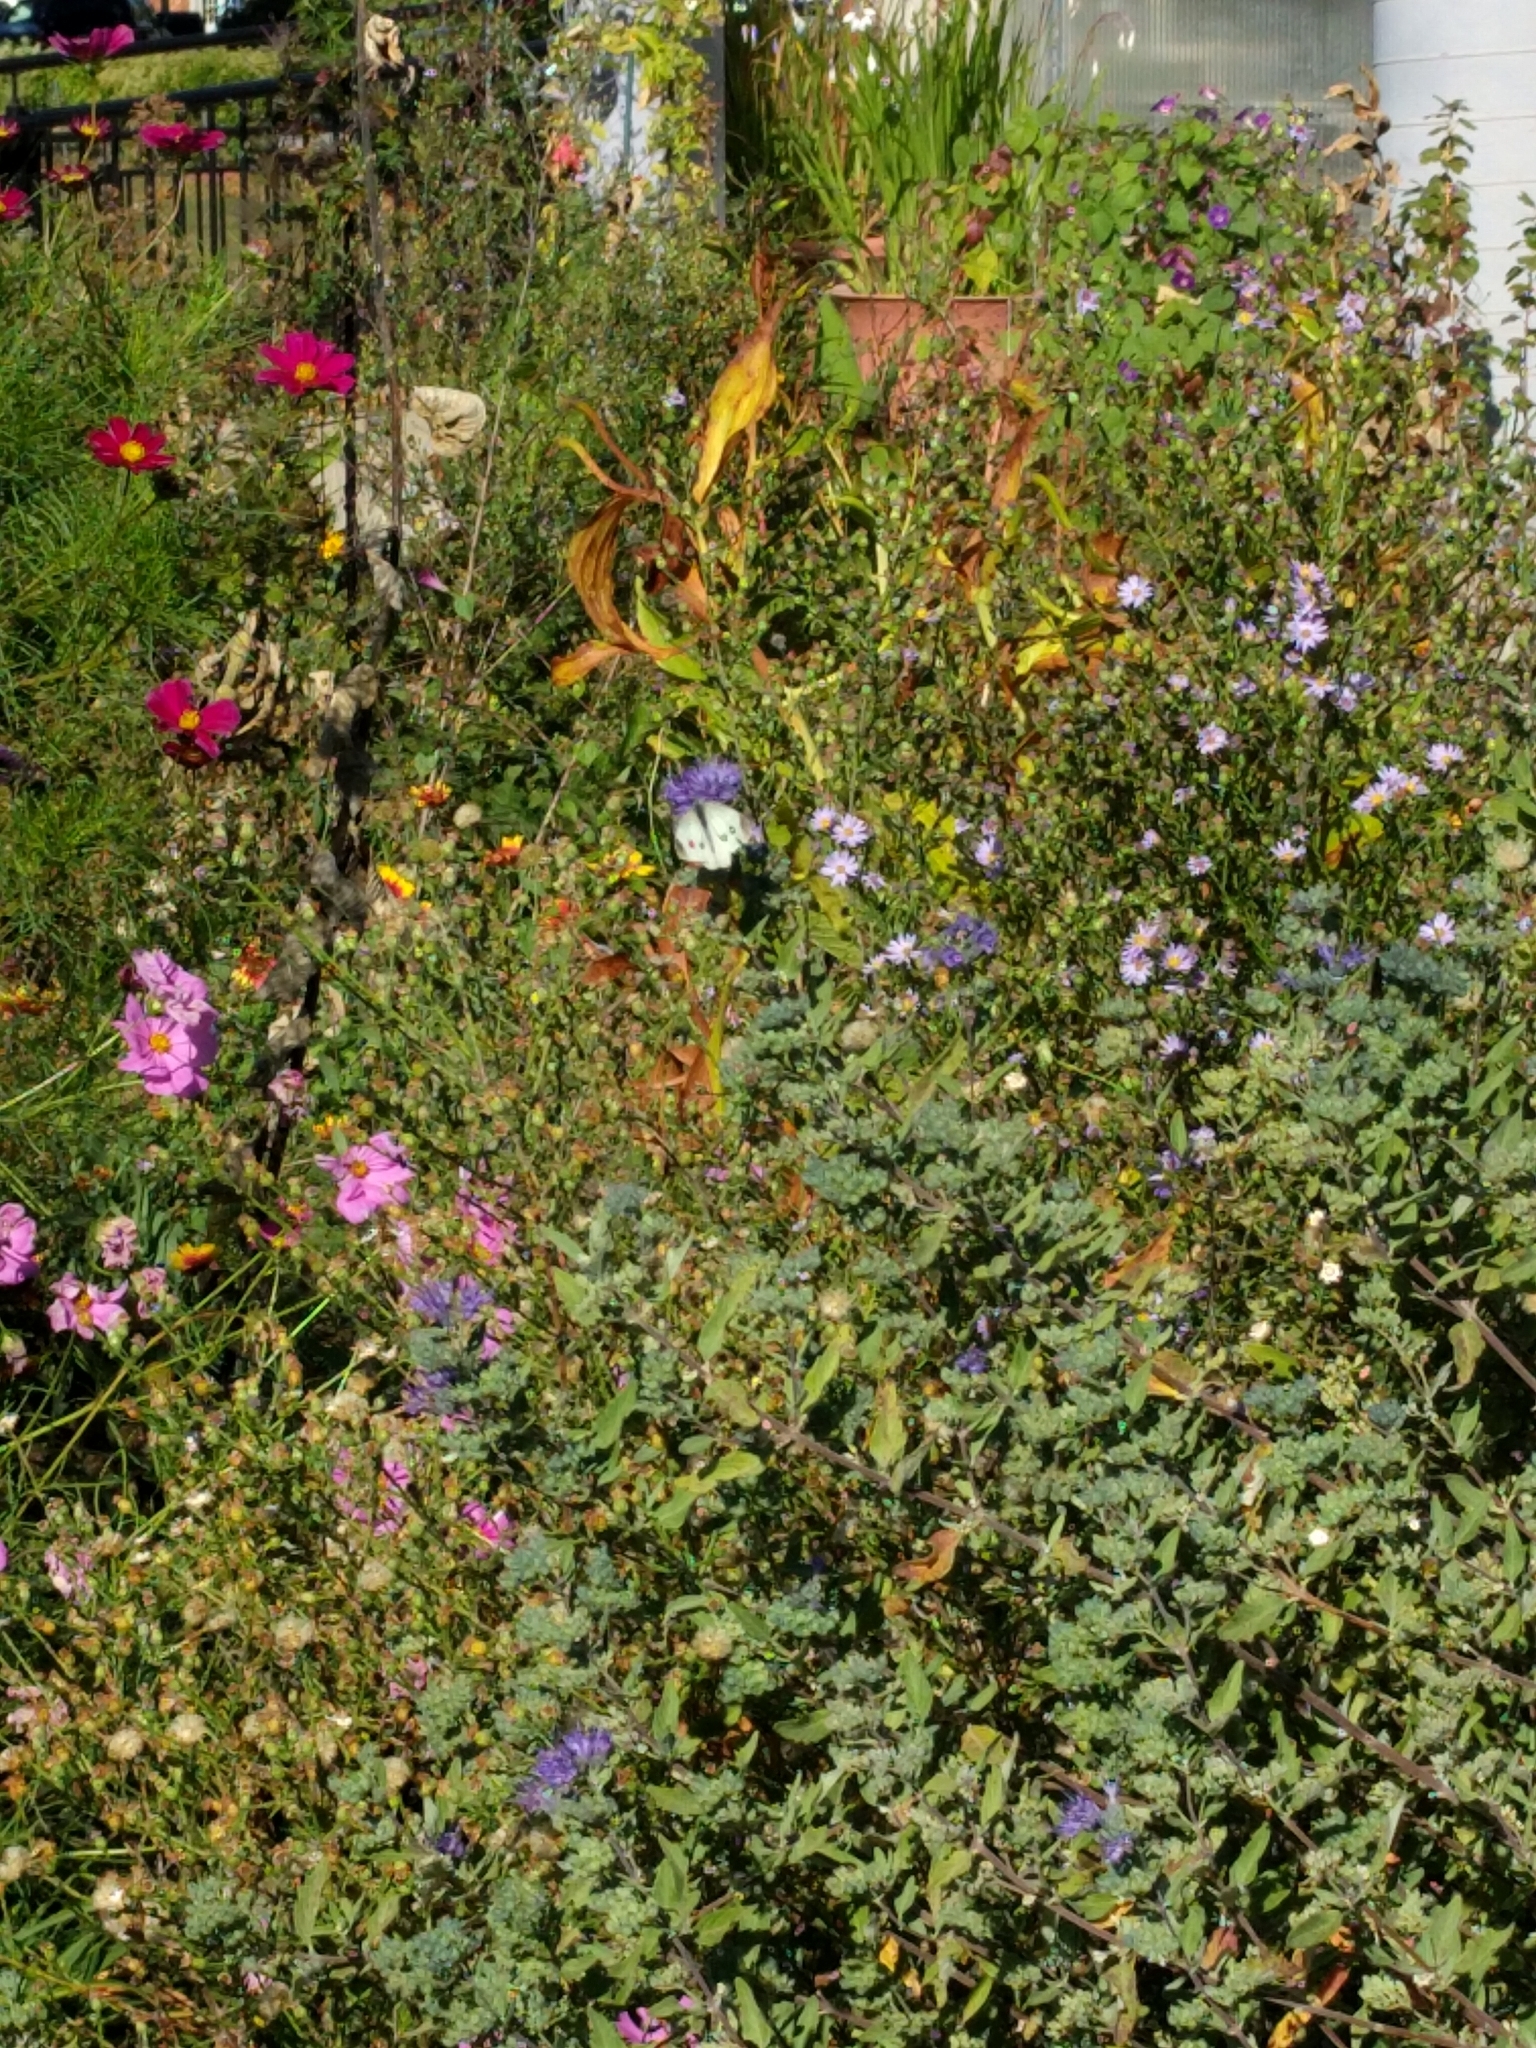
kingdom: Animalia
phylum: Arthropoda
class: Insecta
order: Lepidoptera
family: Pieridae
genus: Pieris
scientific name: Pieris rapae
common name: Small white
